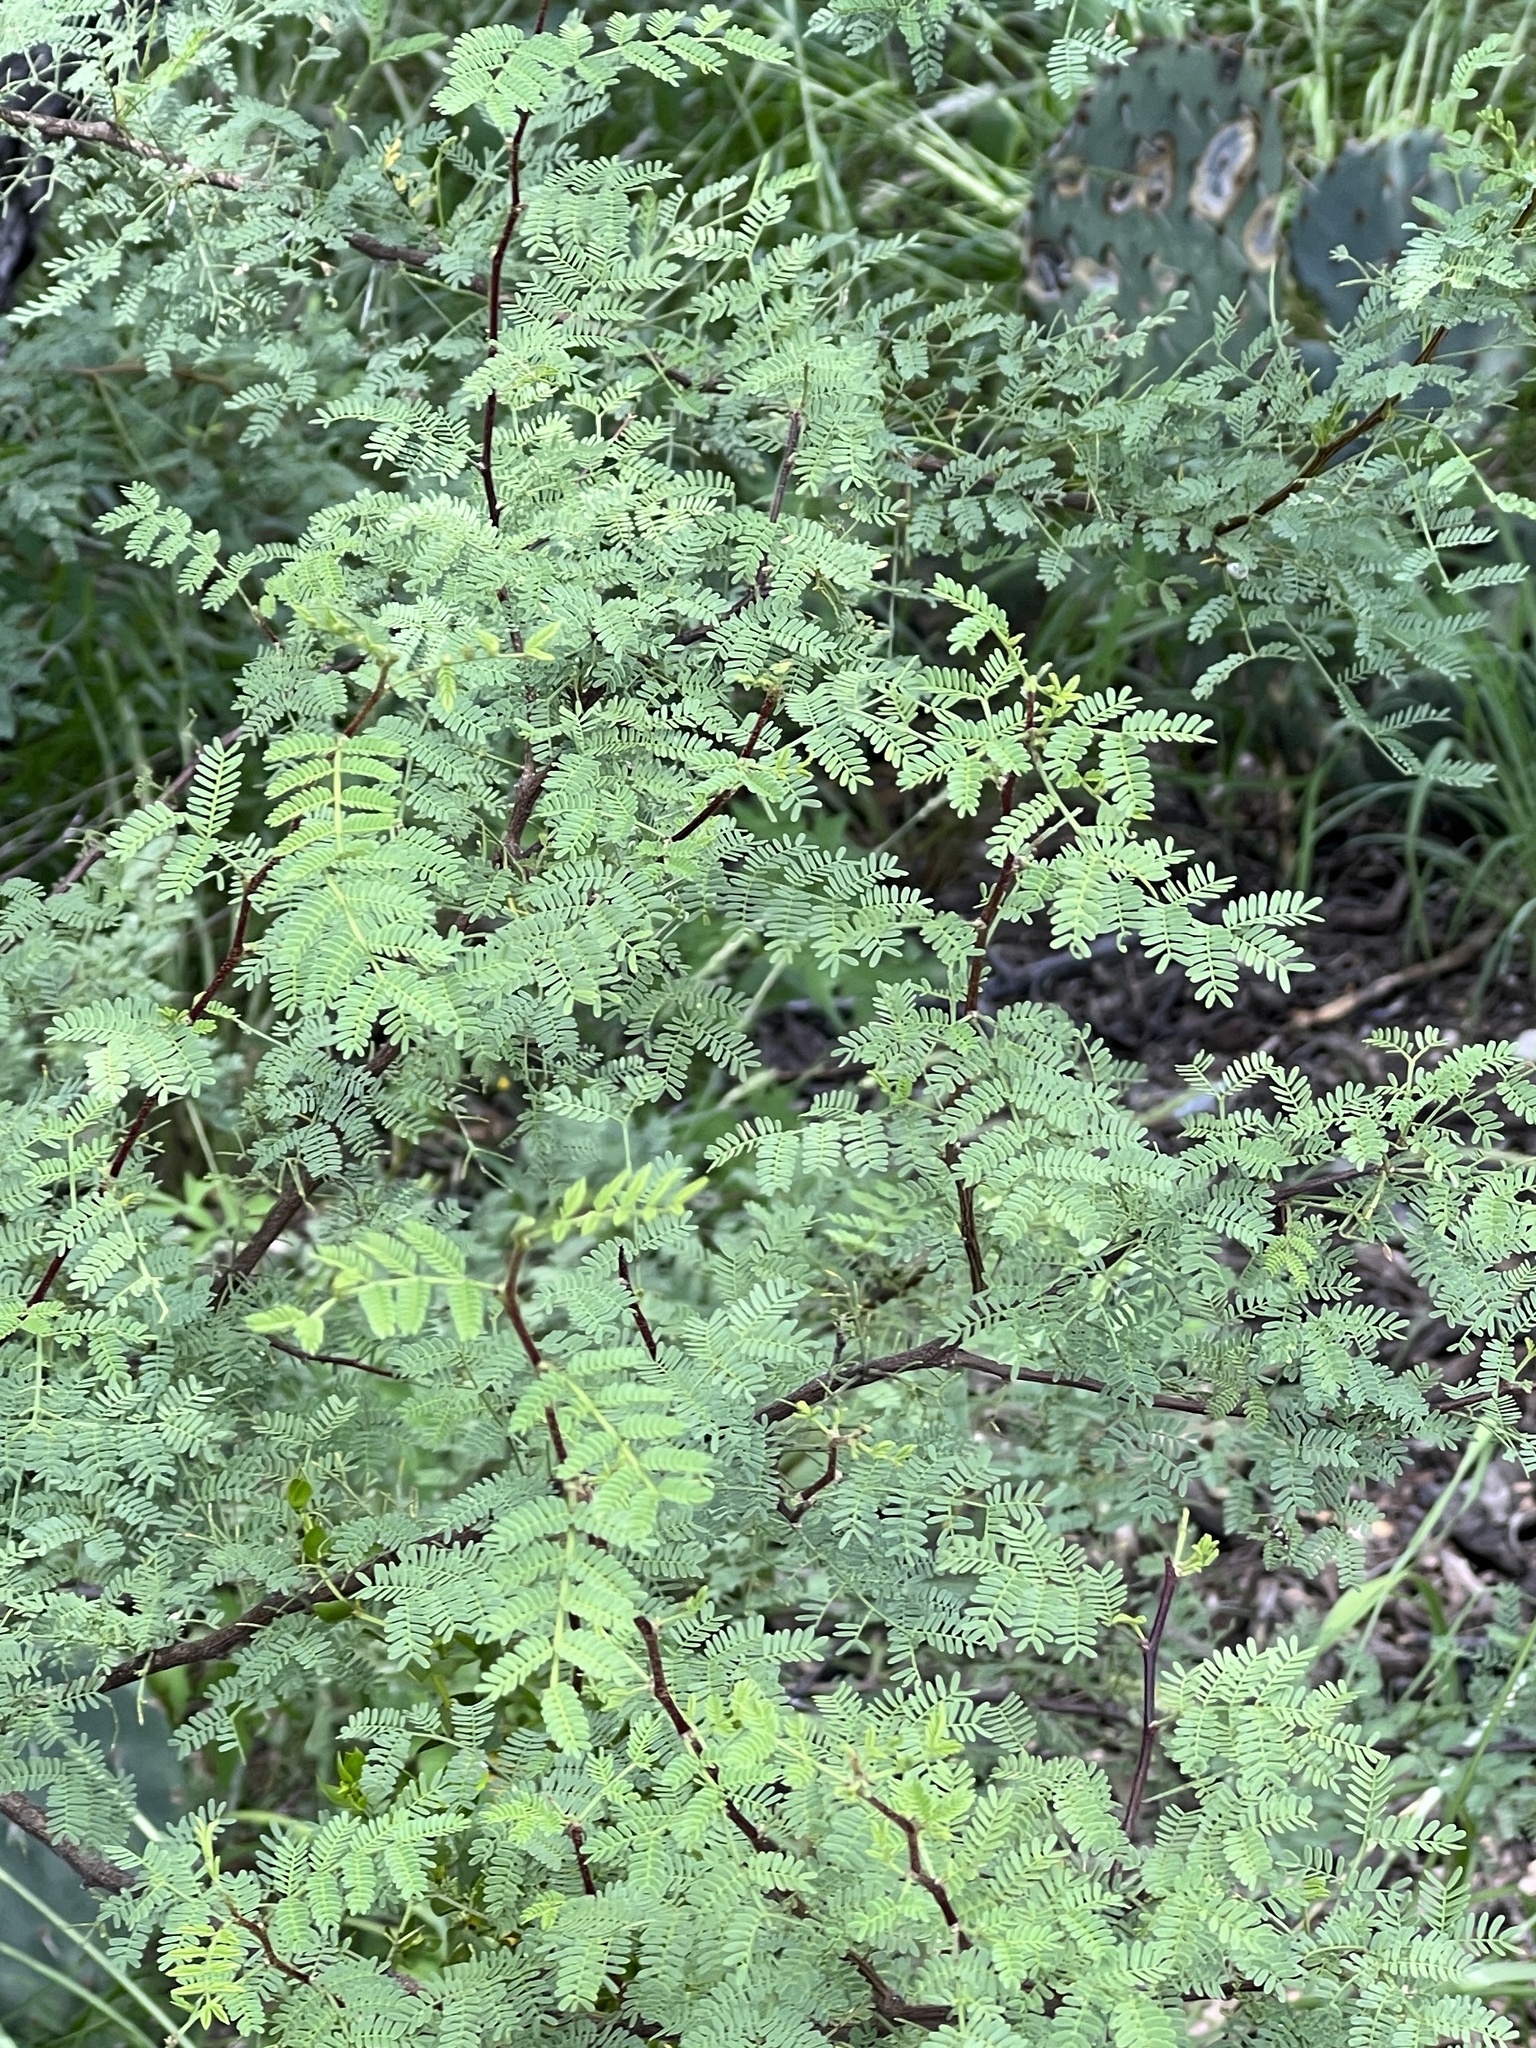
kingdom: Plantae
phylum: Tracheophyta
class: Magnoliopsida
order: Fabales
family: Fabaceae
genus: Mimosa
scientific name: Mimosa aculeaticarpa
